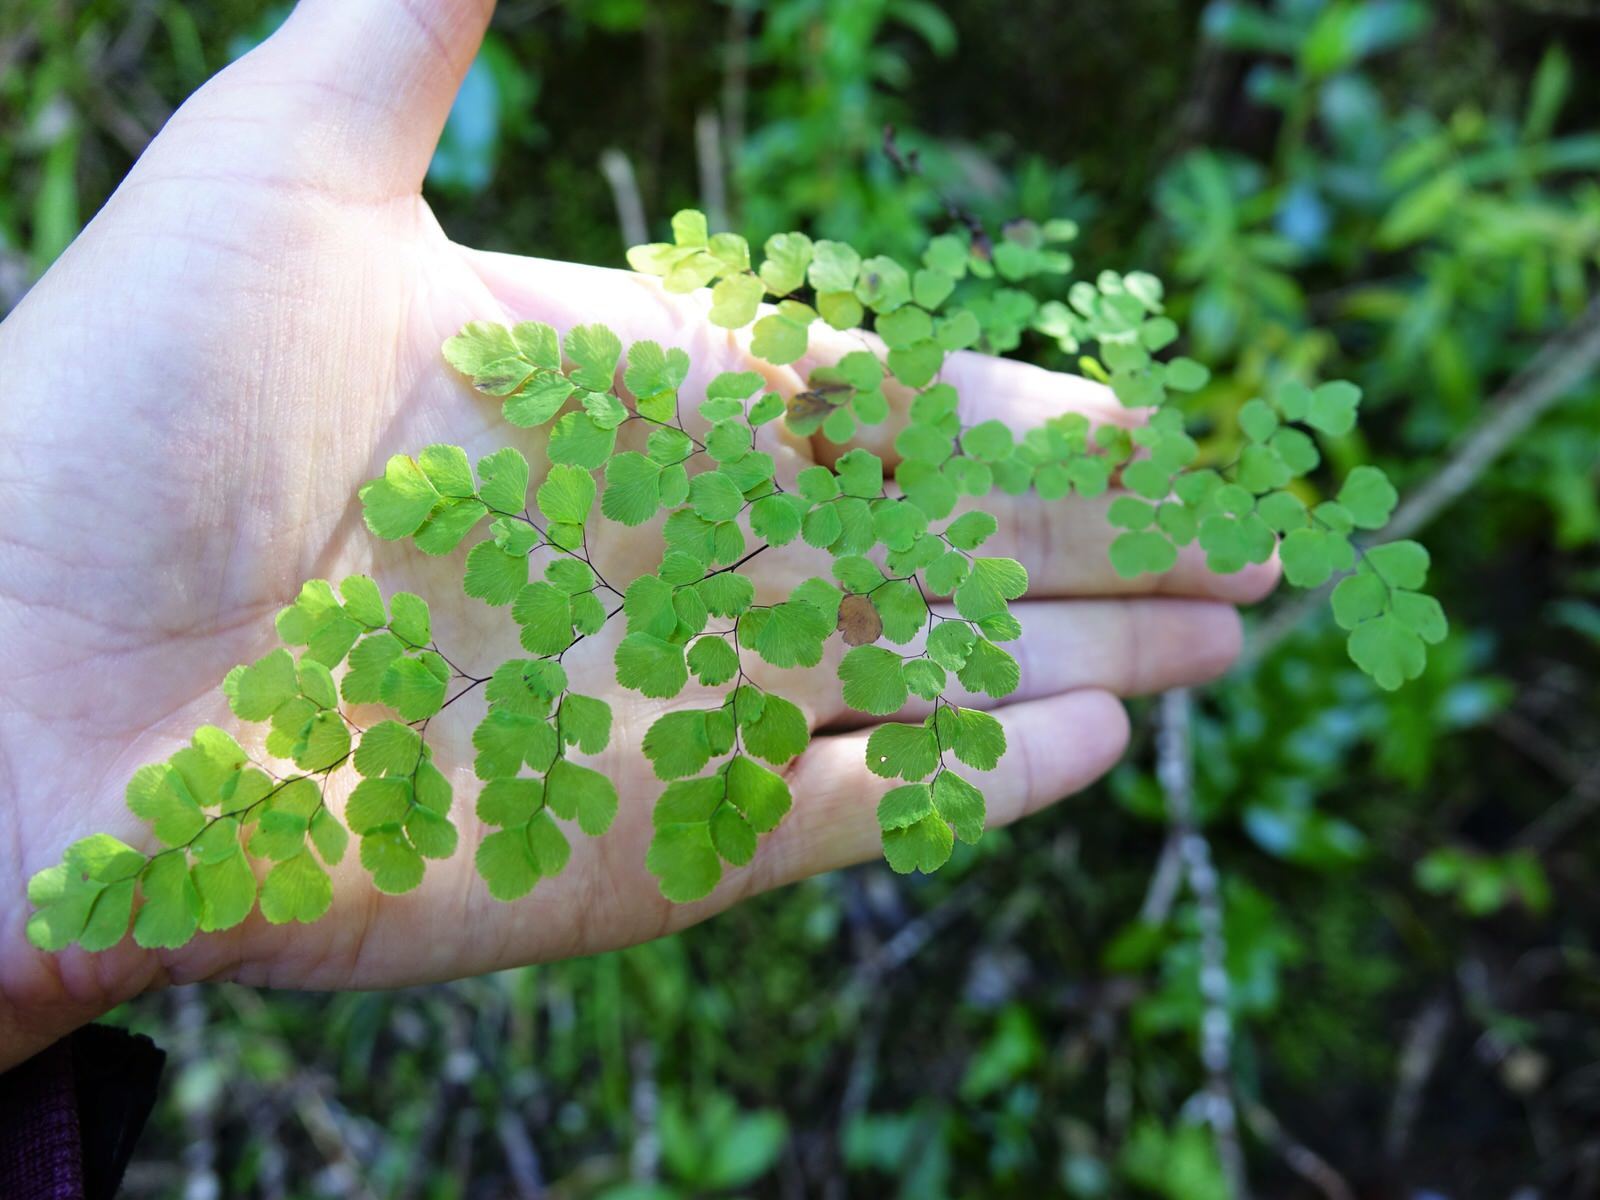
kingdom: Plantae
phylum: Tracheophyta
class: Polypodiopsida
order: Polypodiales
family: Pteridaceae
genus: Adiantum
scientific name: Adiantum raddianum
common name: Delta maidenhair fern
